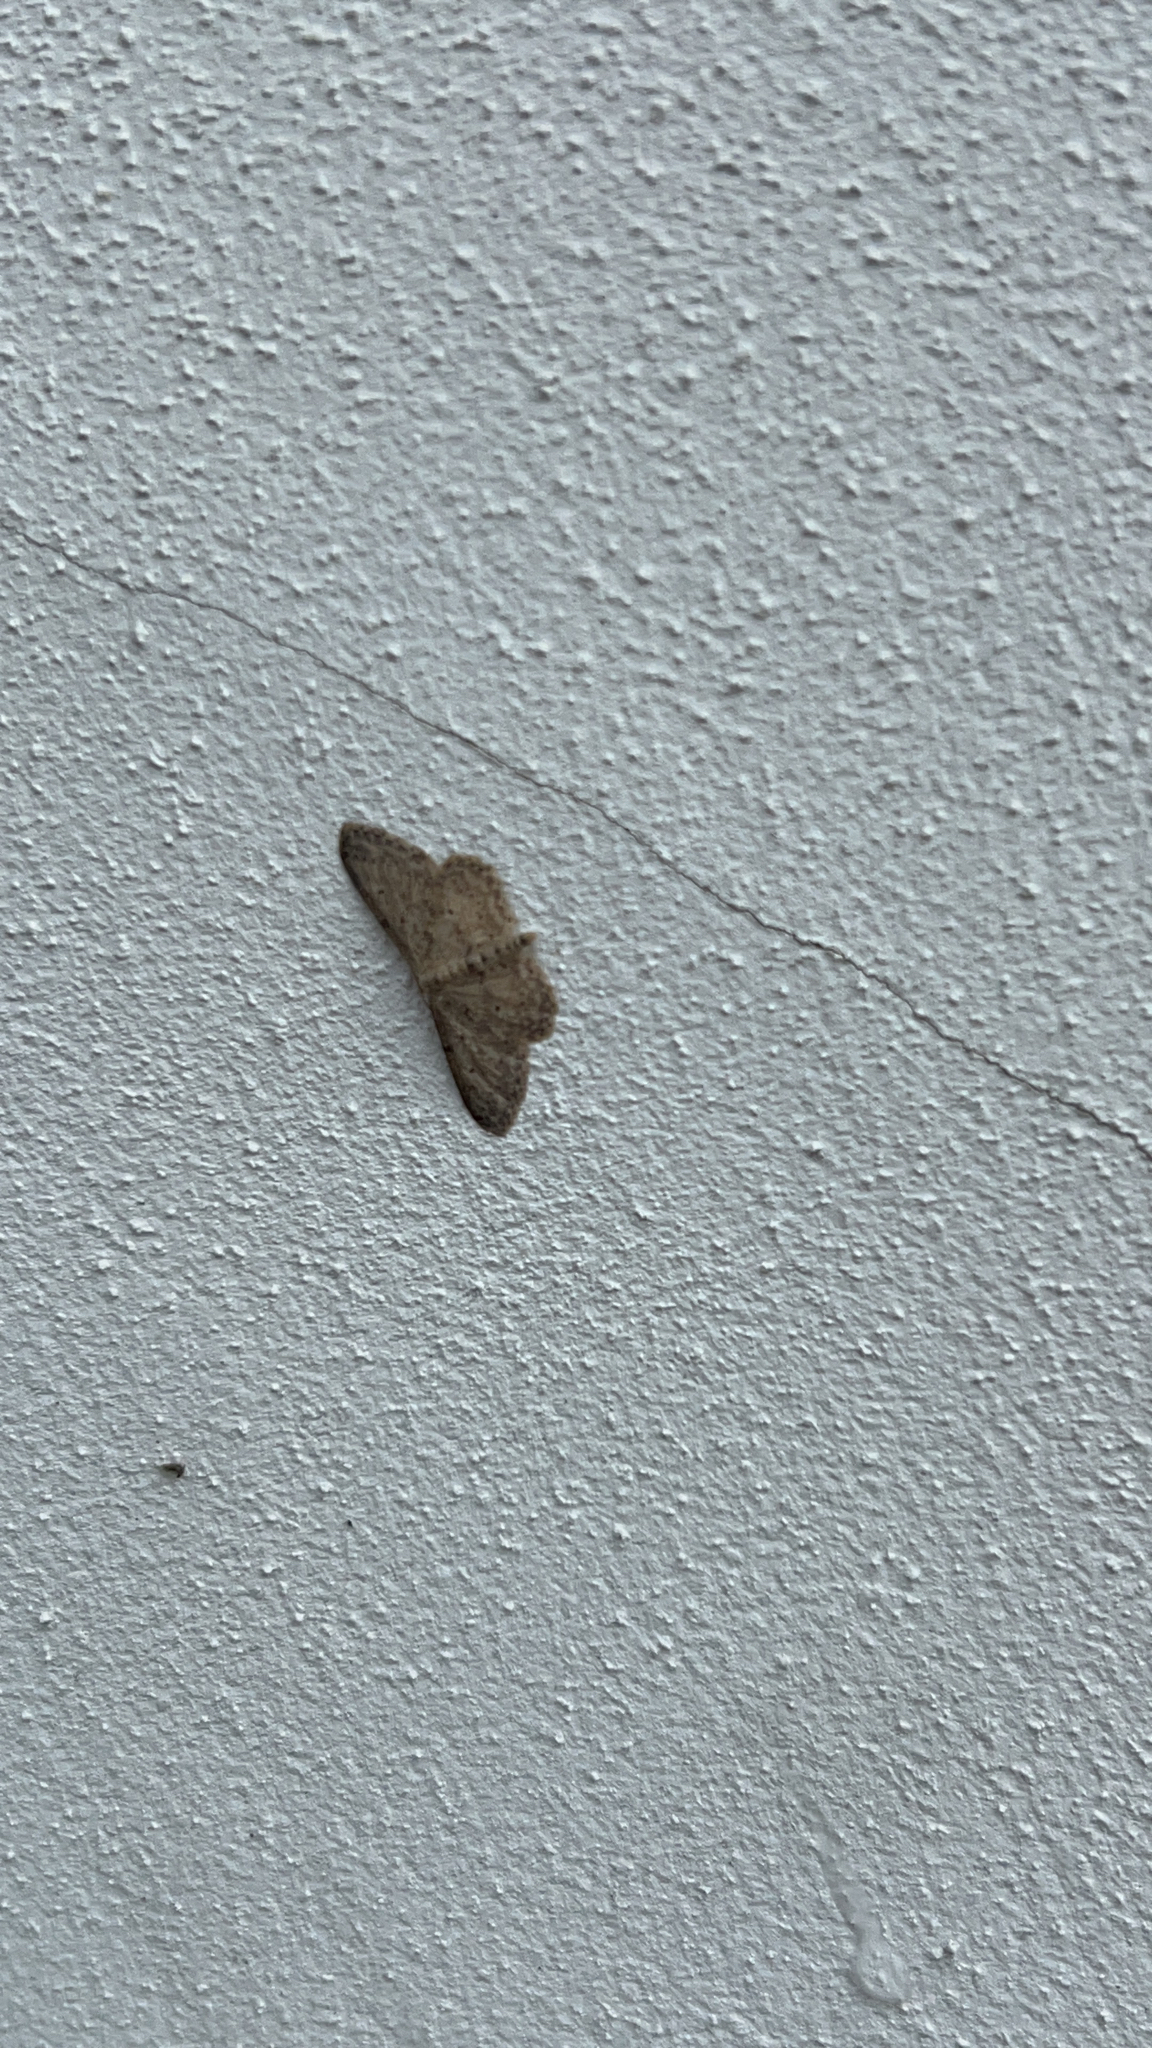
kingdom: Animalia
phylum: Arthropoda
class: Insecta
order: Lepidoptera
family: Geometridae
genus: Idaea
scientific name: Idaea seriata
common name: Small dusty wave
